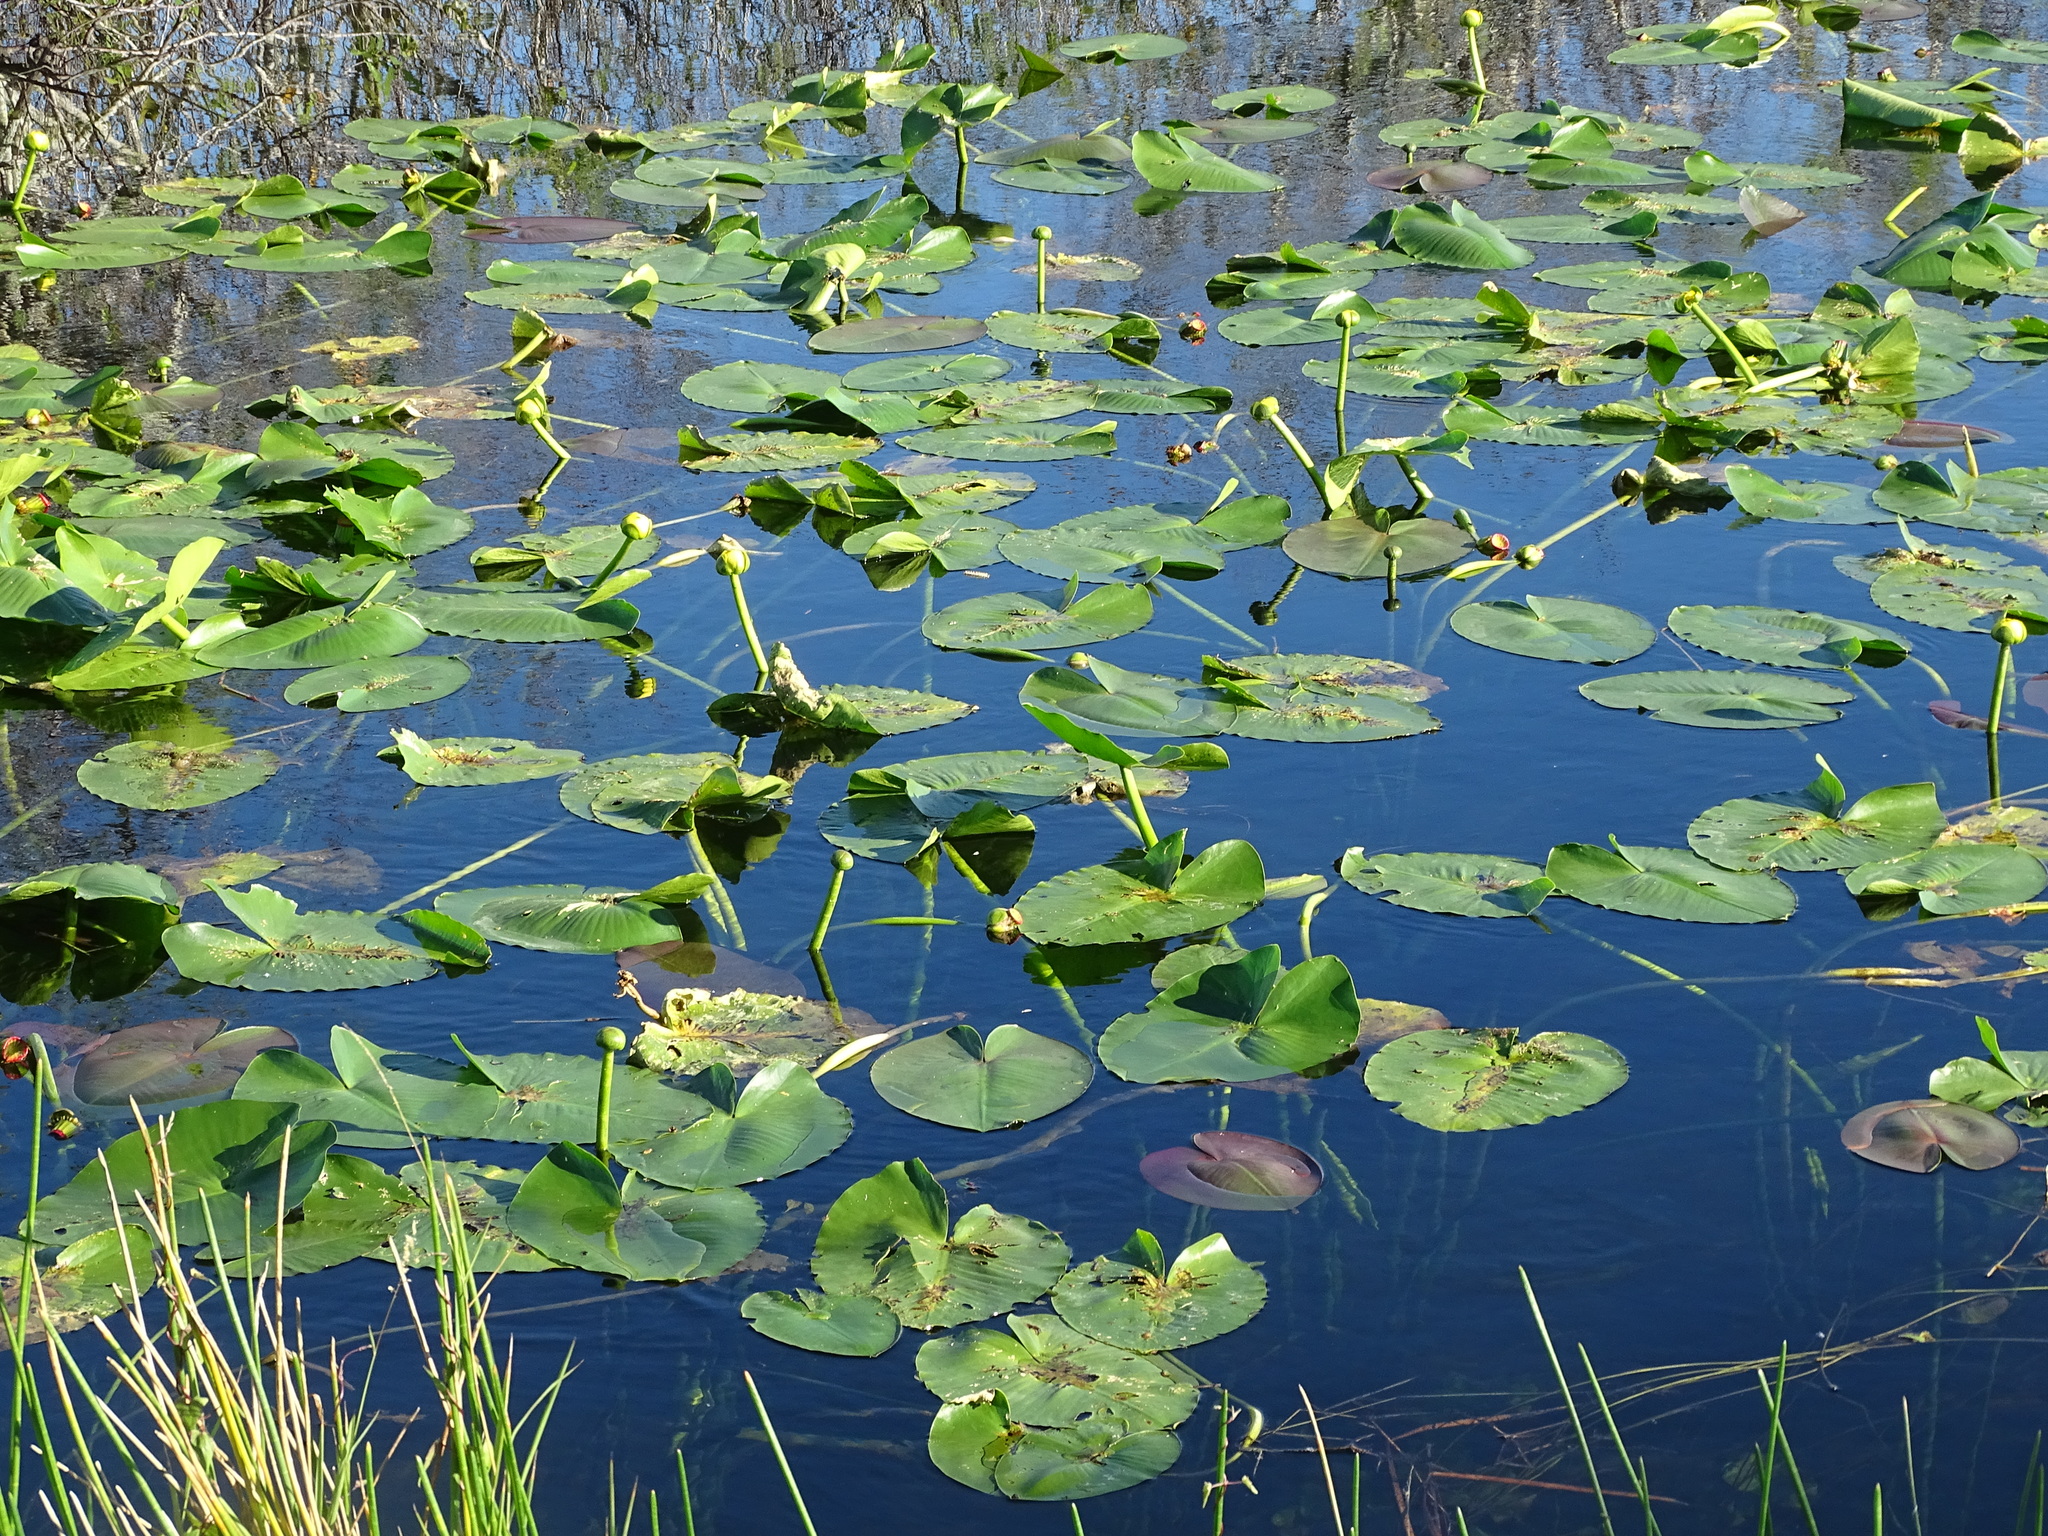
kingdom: Plantae
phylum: Tracheophyta
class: Magnoliopsida
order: Nymphaeales
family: Nymphaeaceae
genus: Nuphar
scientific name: Nuphar advena
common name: Spatter-dock
